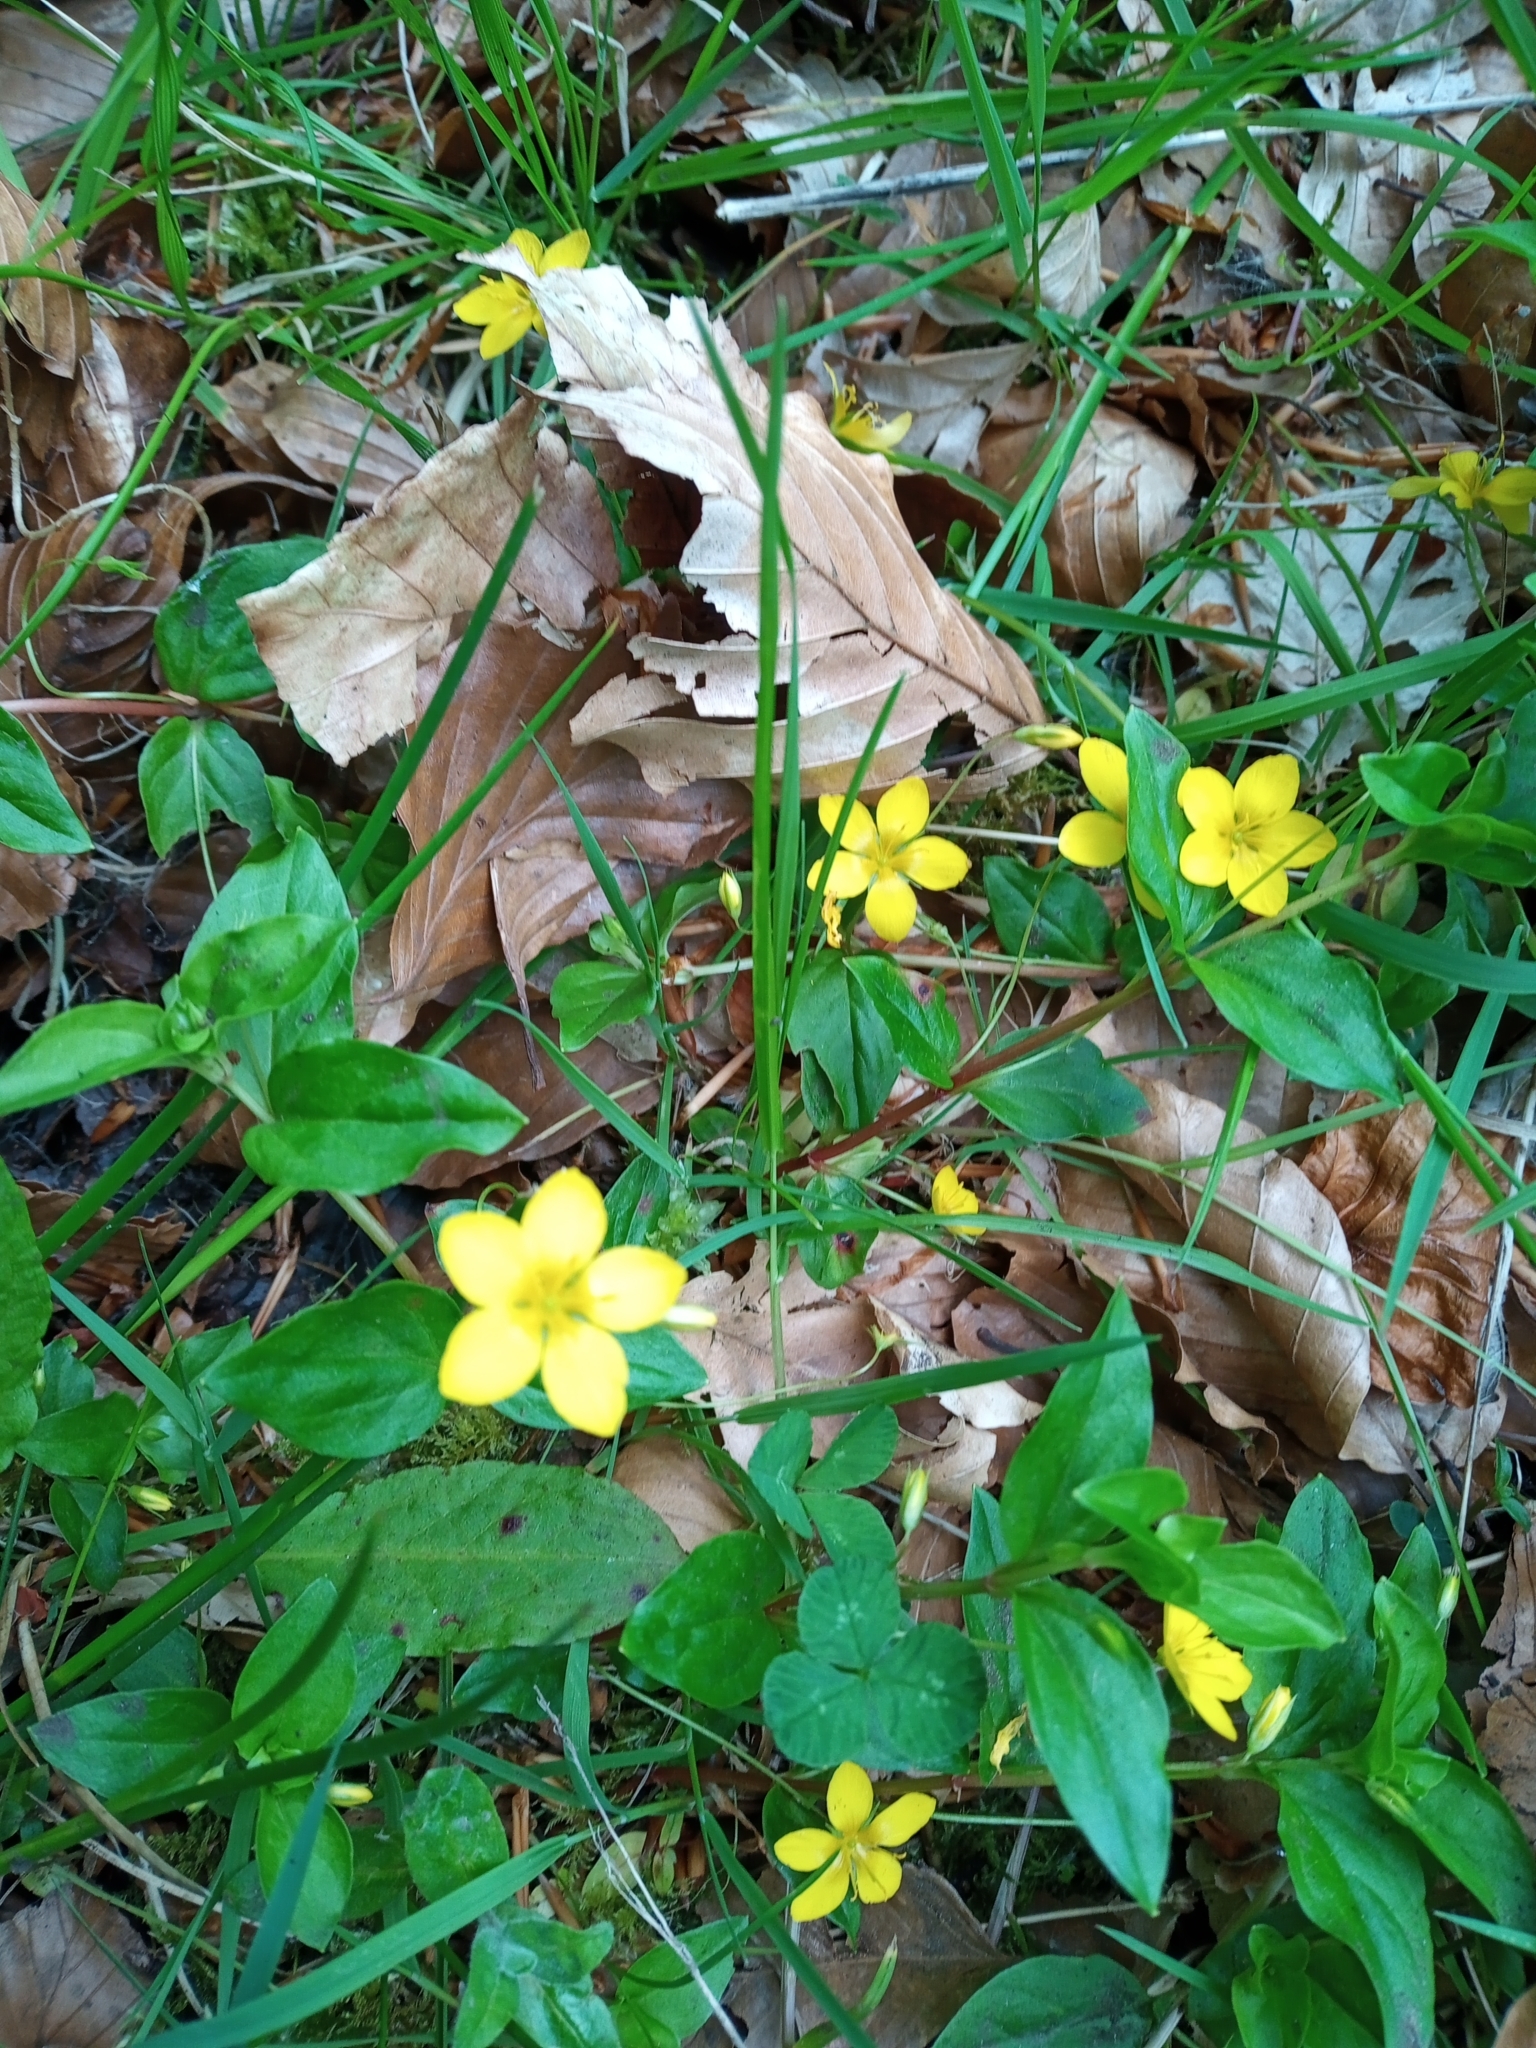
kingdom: Plantae
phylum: Tracheophyta
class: Magnoliopsida
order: Ericales
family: Primulaceae
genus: Lysimachia
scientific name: Lysimachia nemorum
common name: Yellow pimpernel
